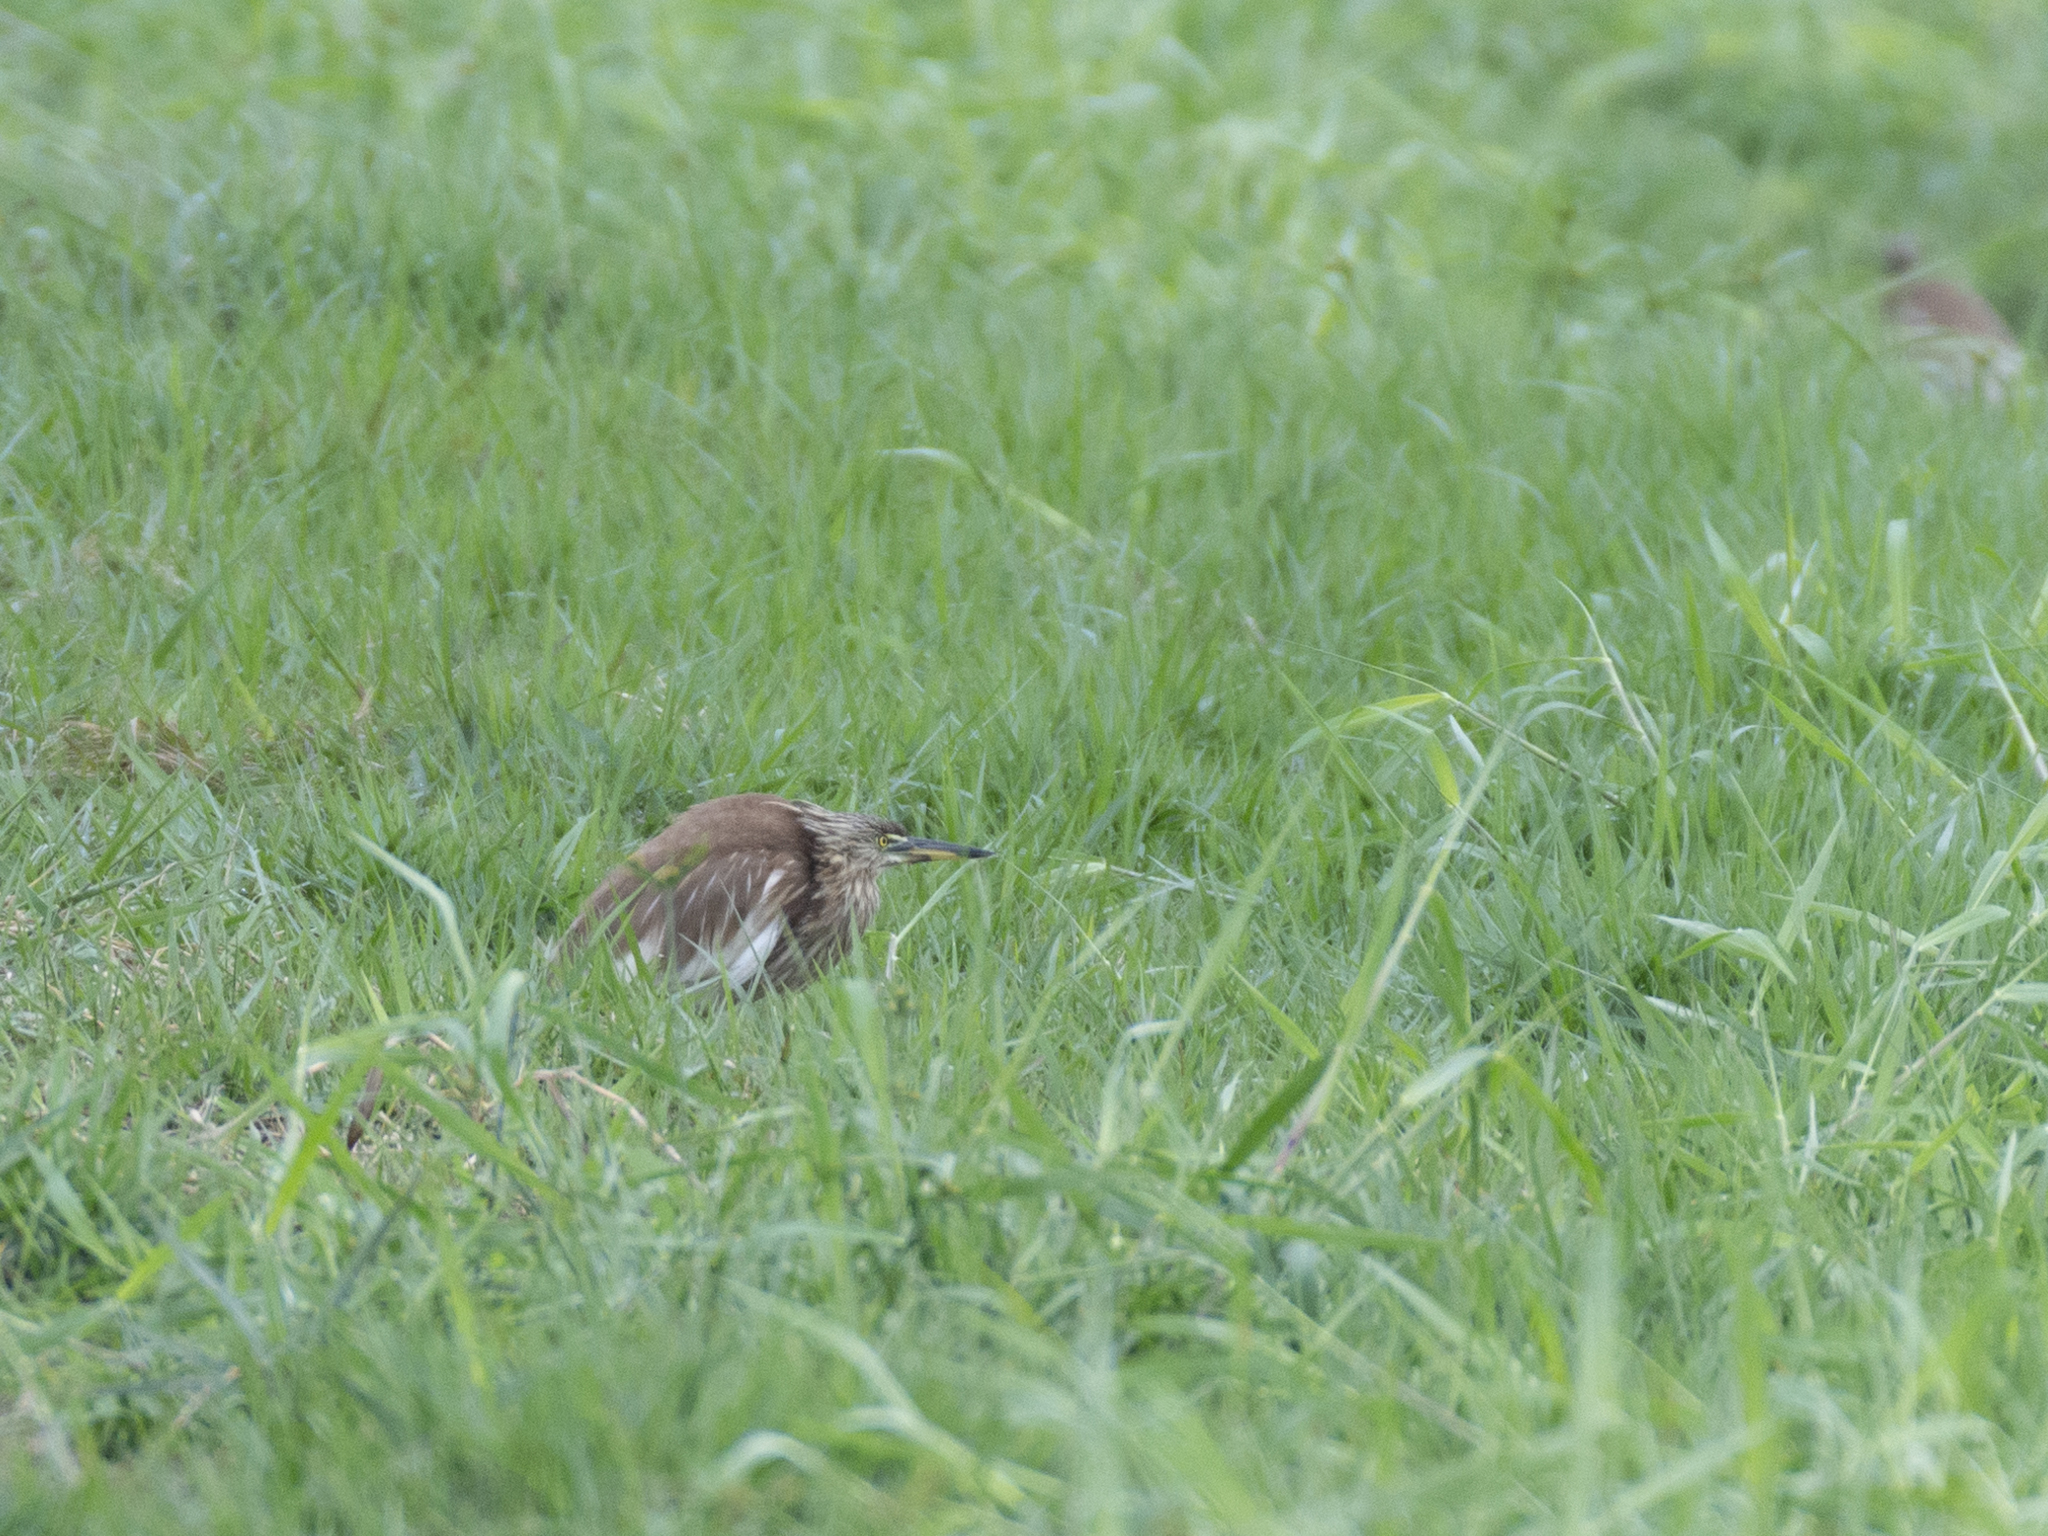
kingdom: Animalia
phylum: Chordata
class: Aves
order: Pelecaniformes
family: Ardeidae
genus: Ardeola
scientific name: Ardeola bacchus
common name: Chinese pond heron
